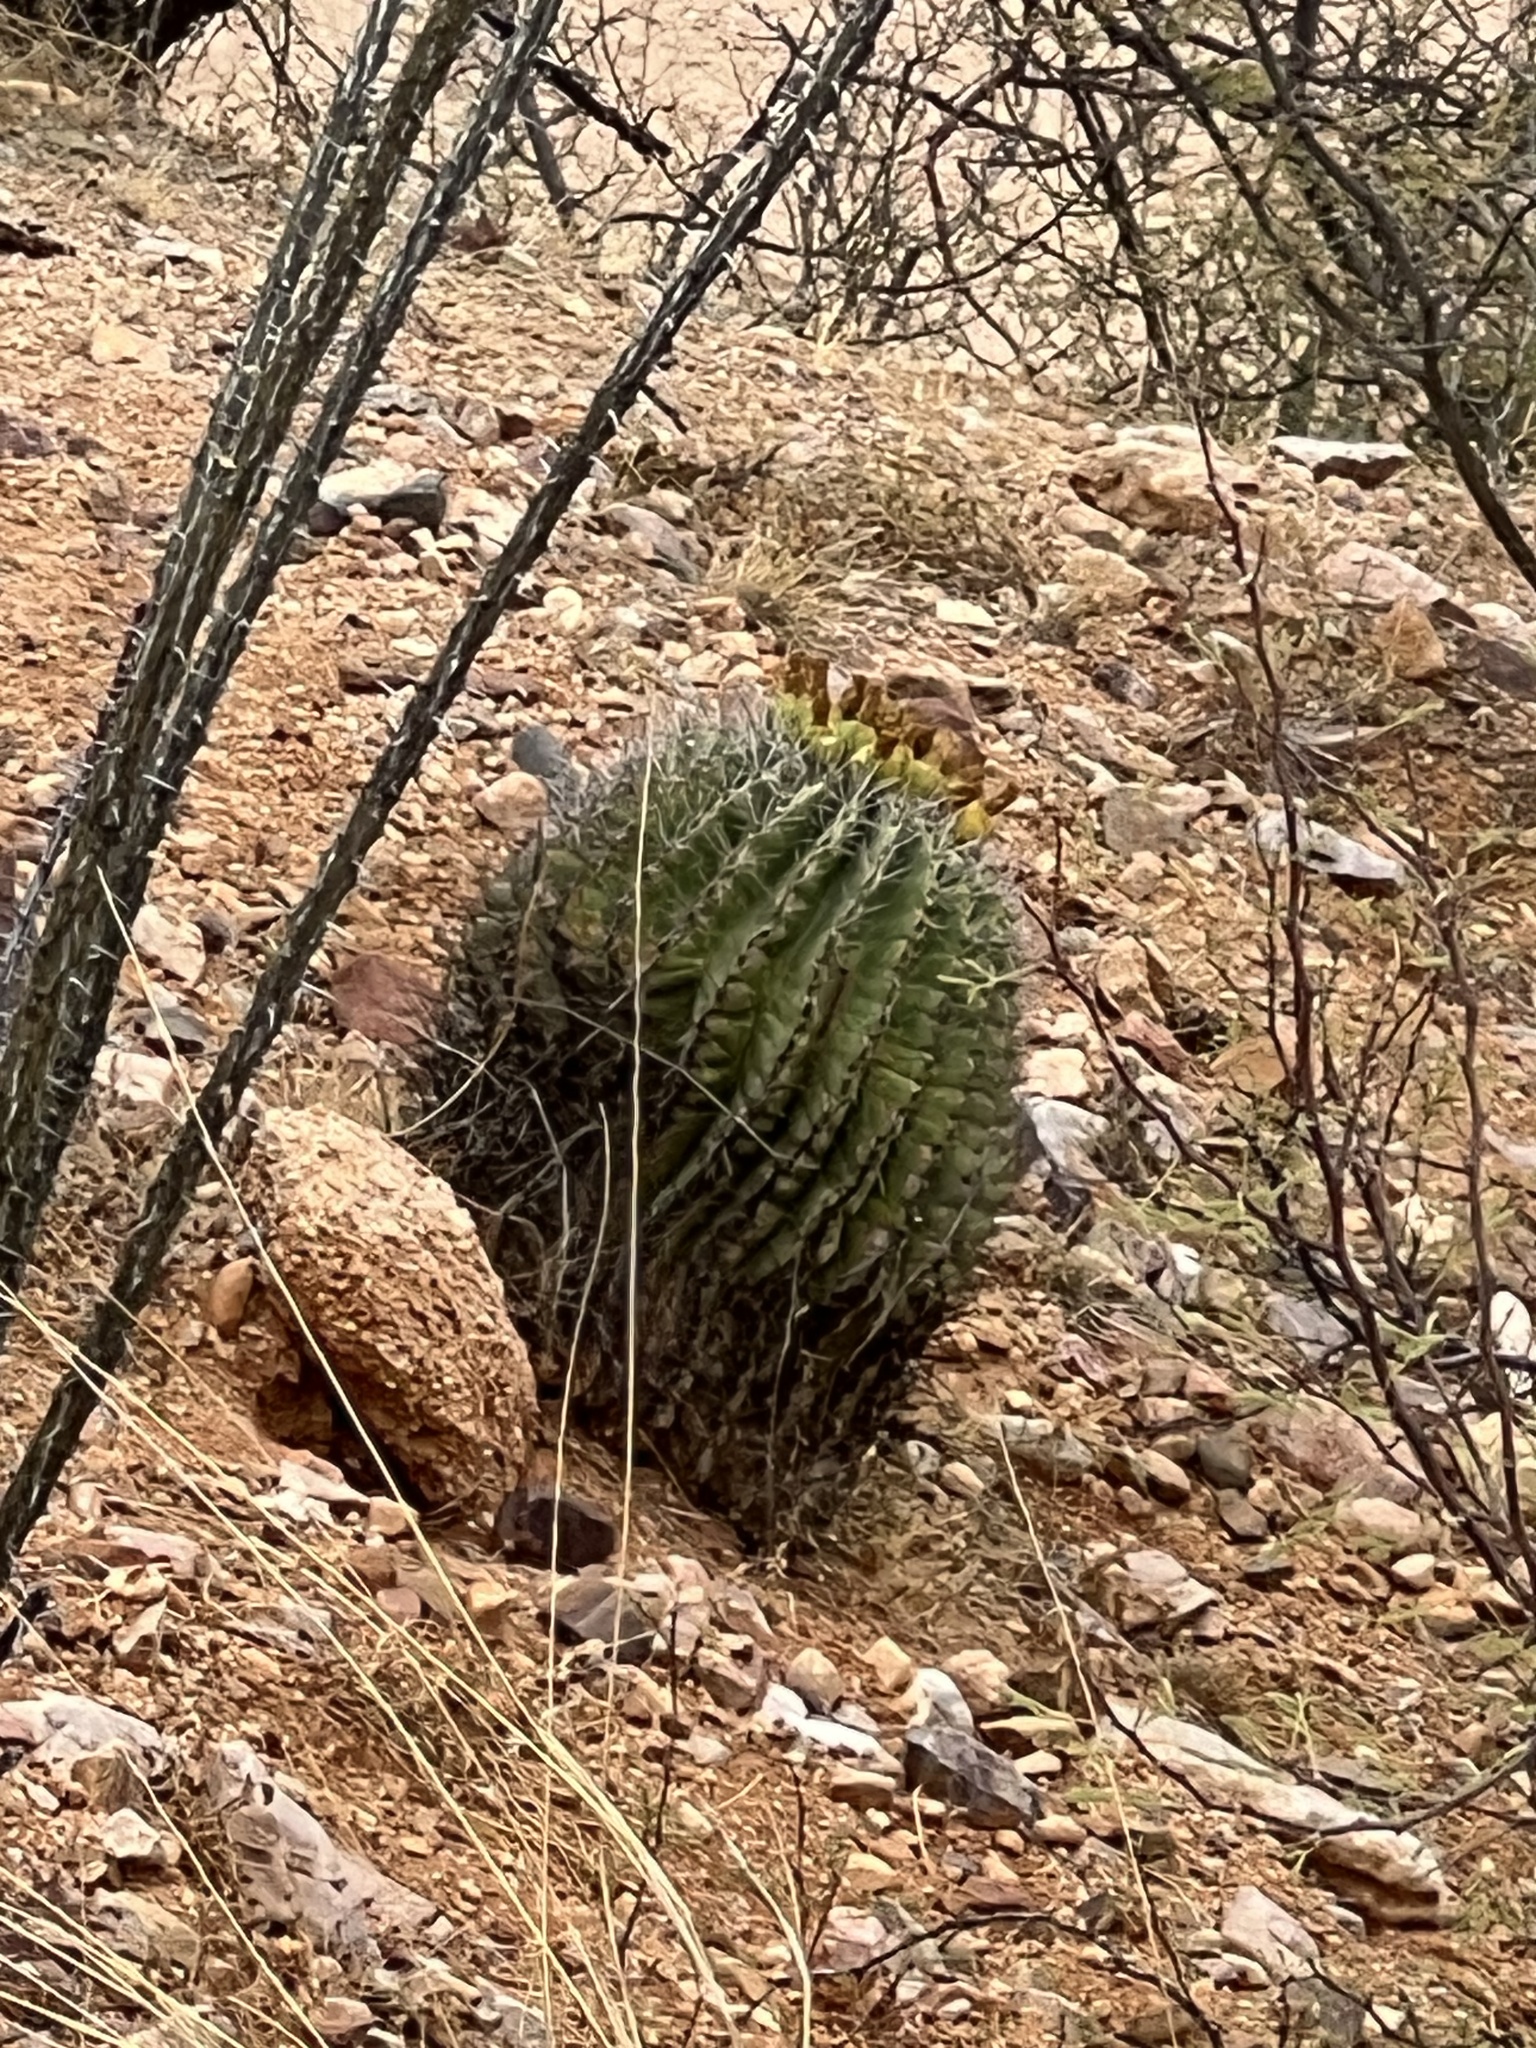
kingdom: Plantae
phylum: Tracheophyta
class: Magnoliopsida
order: Caryophyllales
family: Cactaceae
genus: Ferocactus
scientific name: Ferocactus wislizeni
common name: Candy barrel cactus
